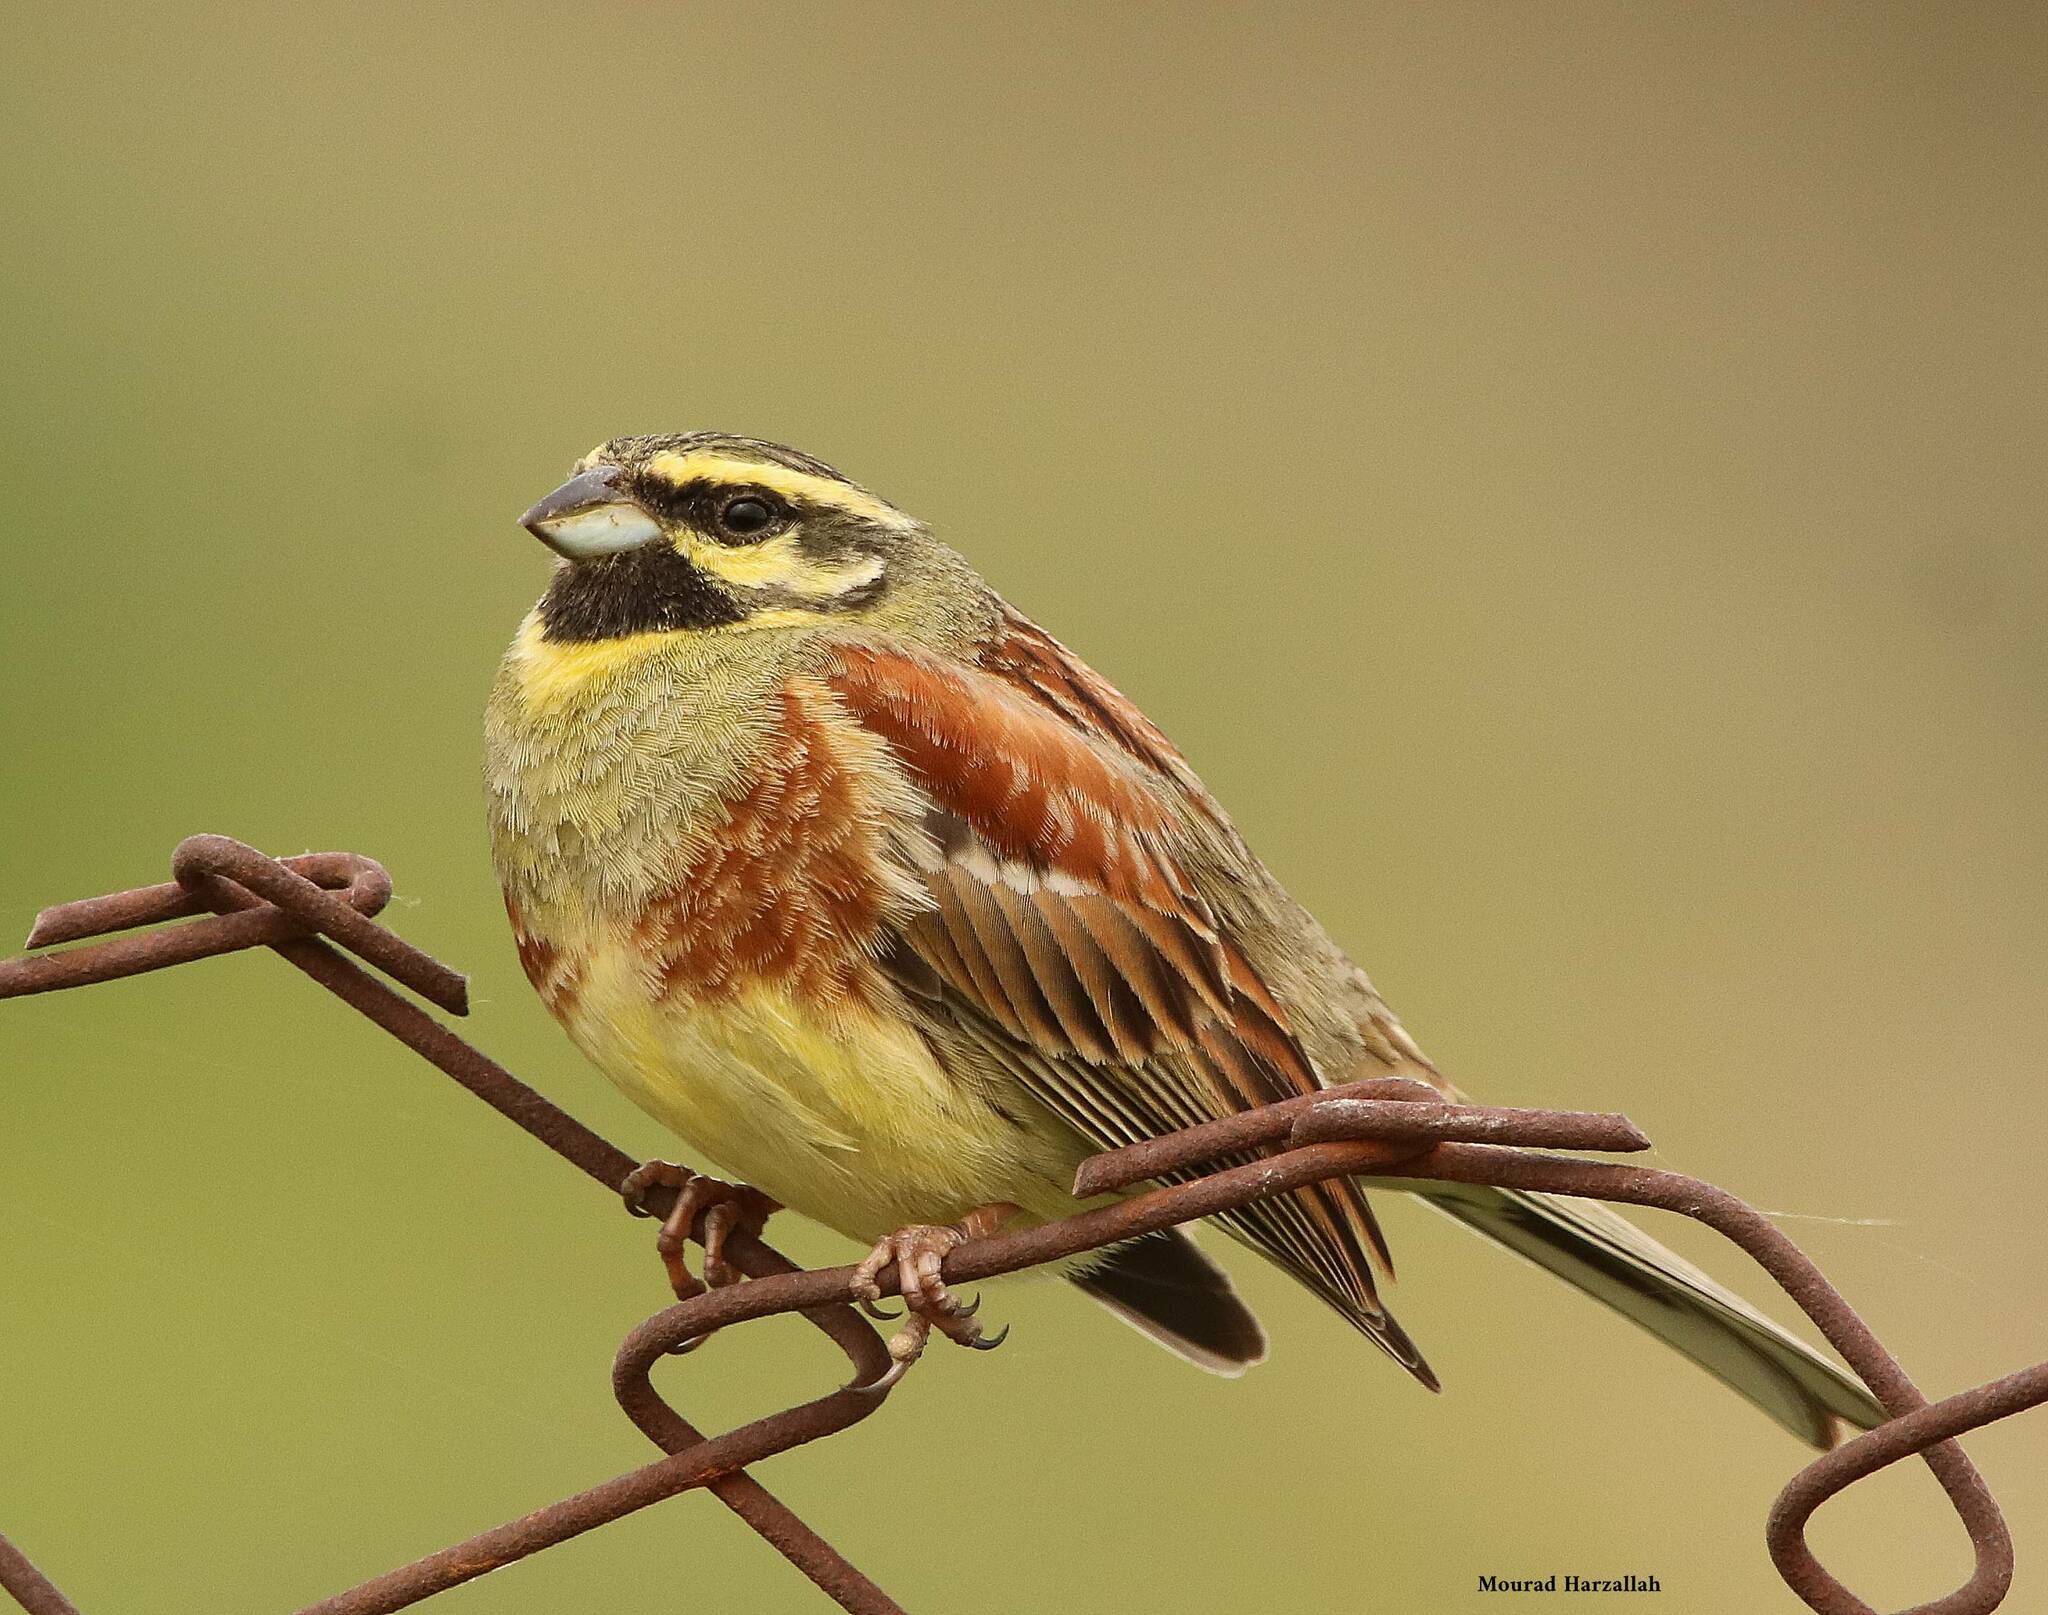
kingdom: Animalia
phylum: Chordata
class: Aves
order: Passeriformes
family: Emberizidae
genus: Emberiza
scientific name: Emberiza cirlus
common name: Cirl bunting
